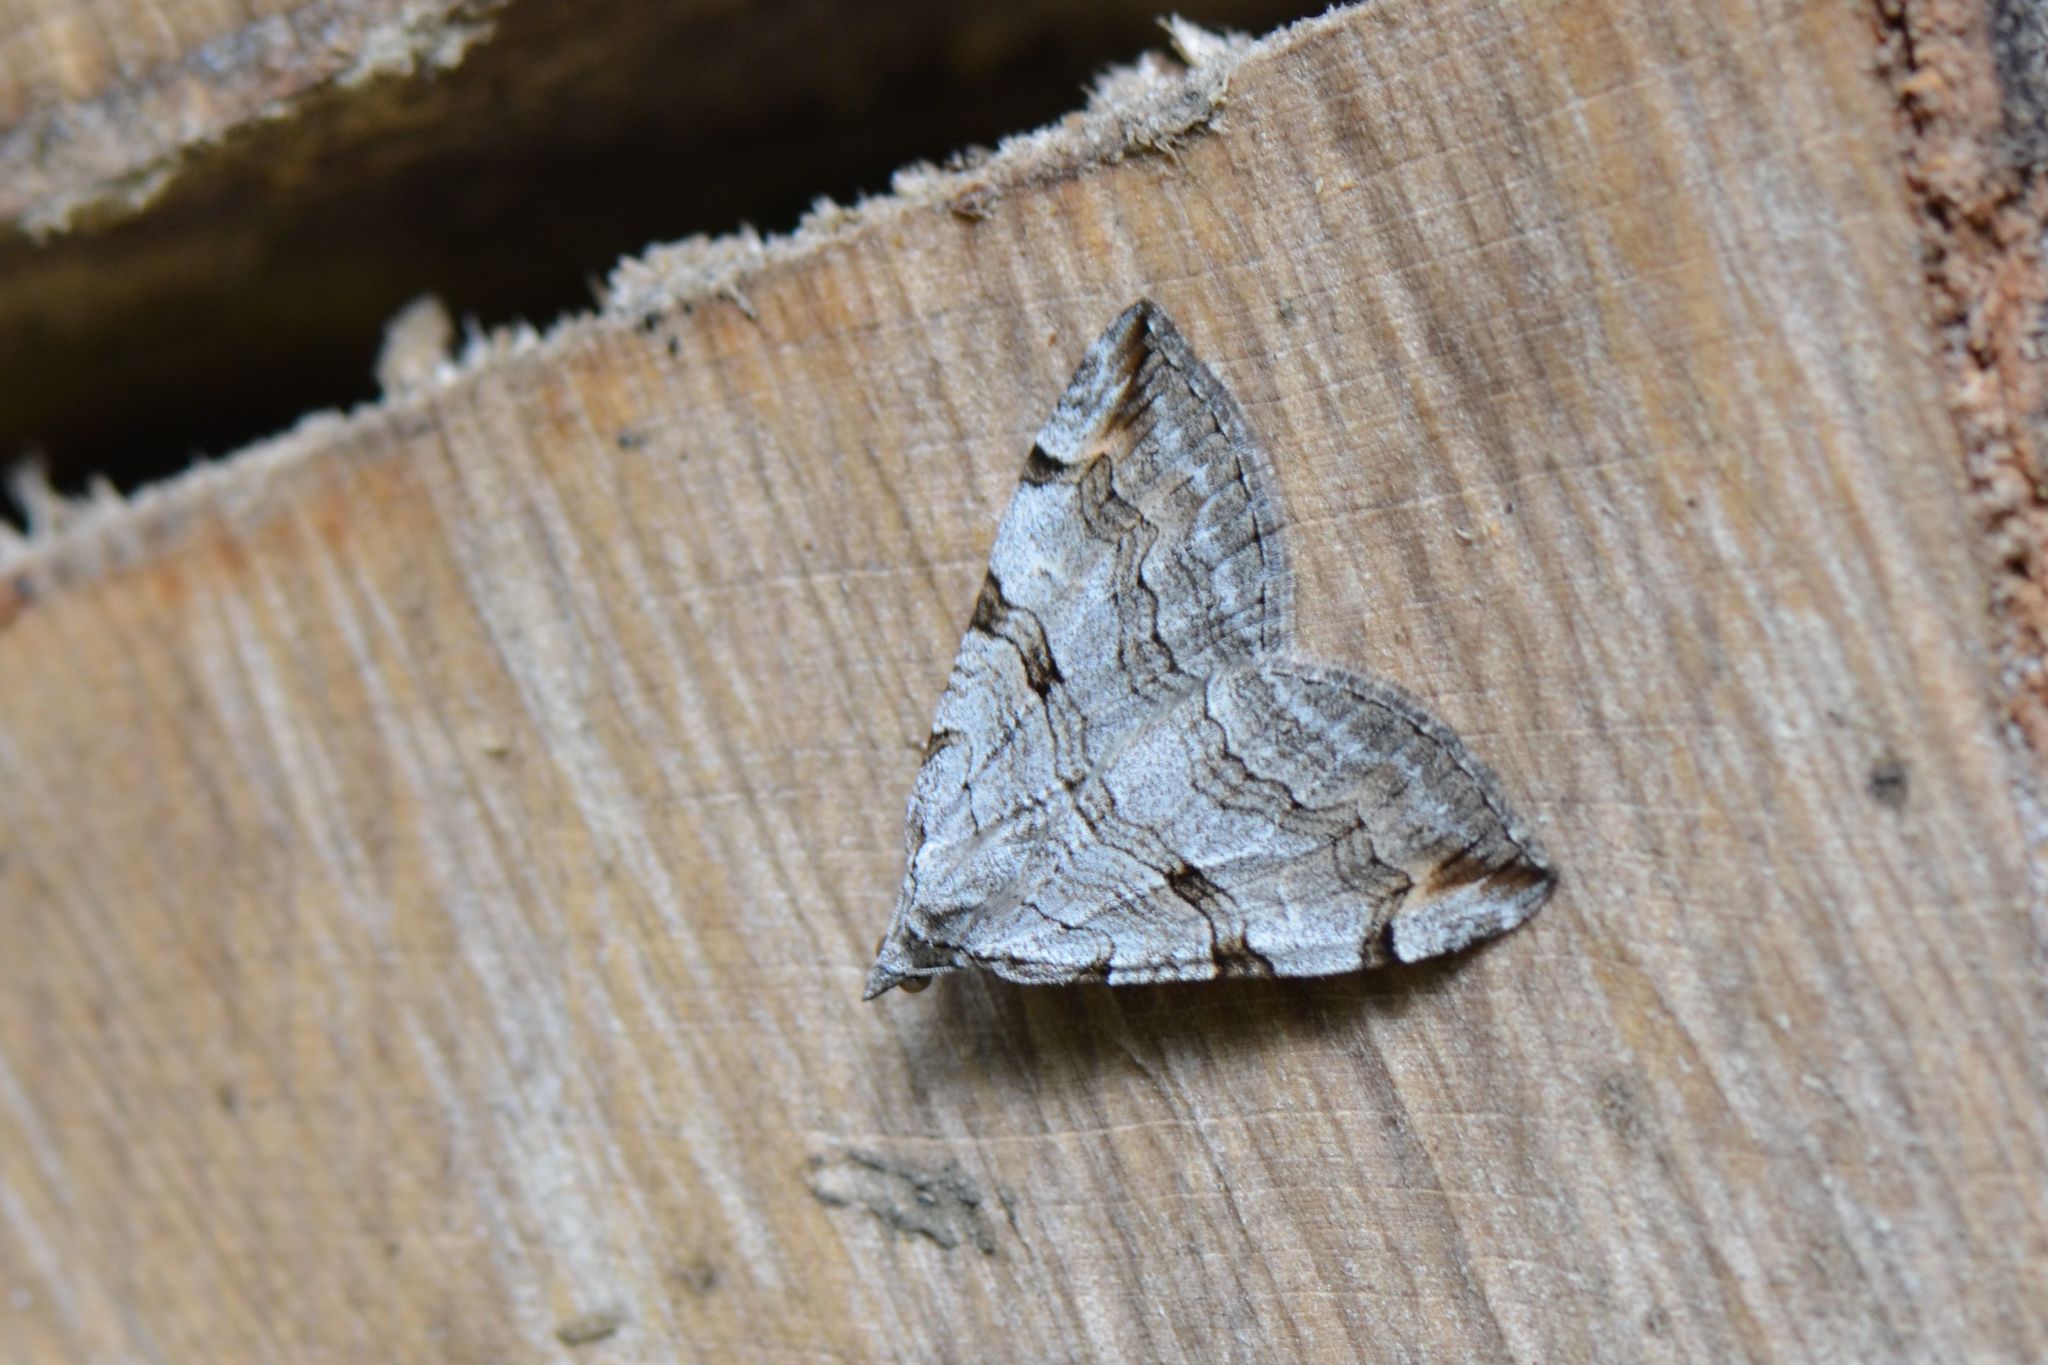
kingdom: Animalia
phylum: Arthropoda
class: Insecta
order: Lepidoptera
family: Geometridae
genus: Aplocera
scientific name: Aplocera plagiata
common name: Treble-bar
